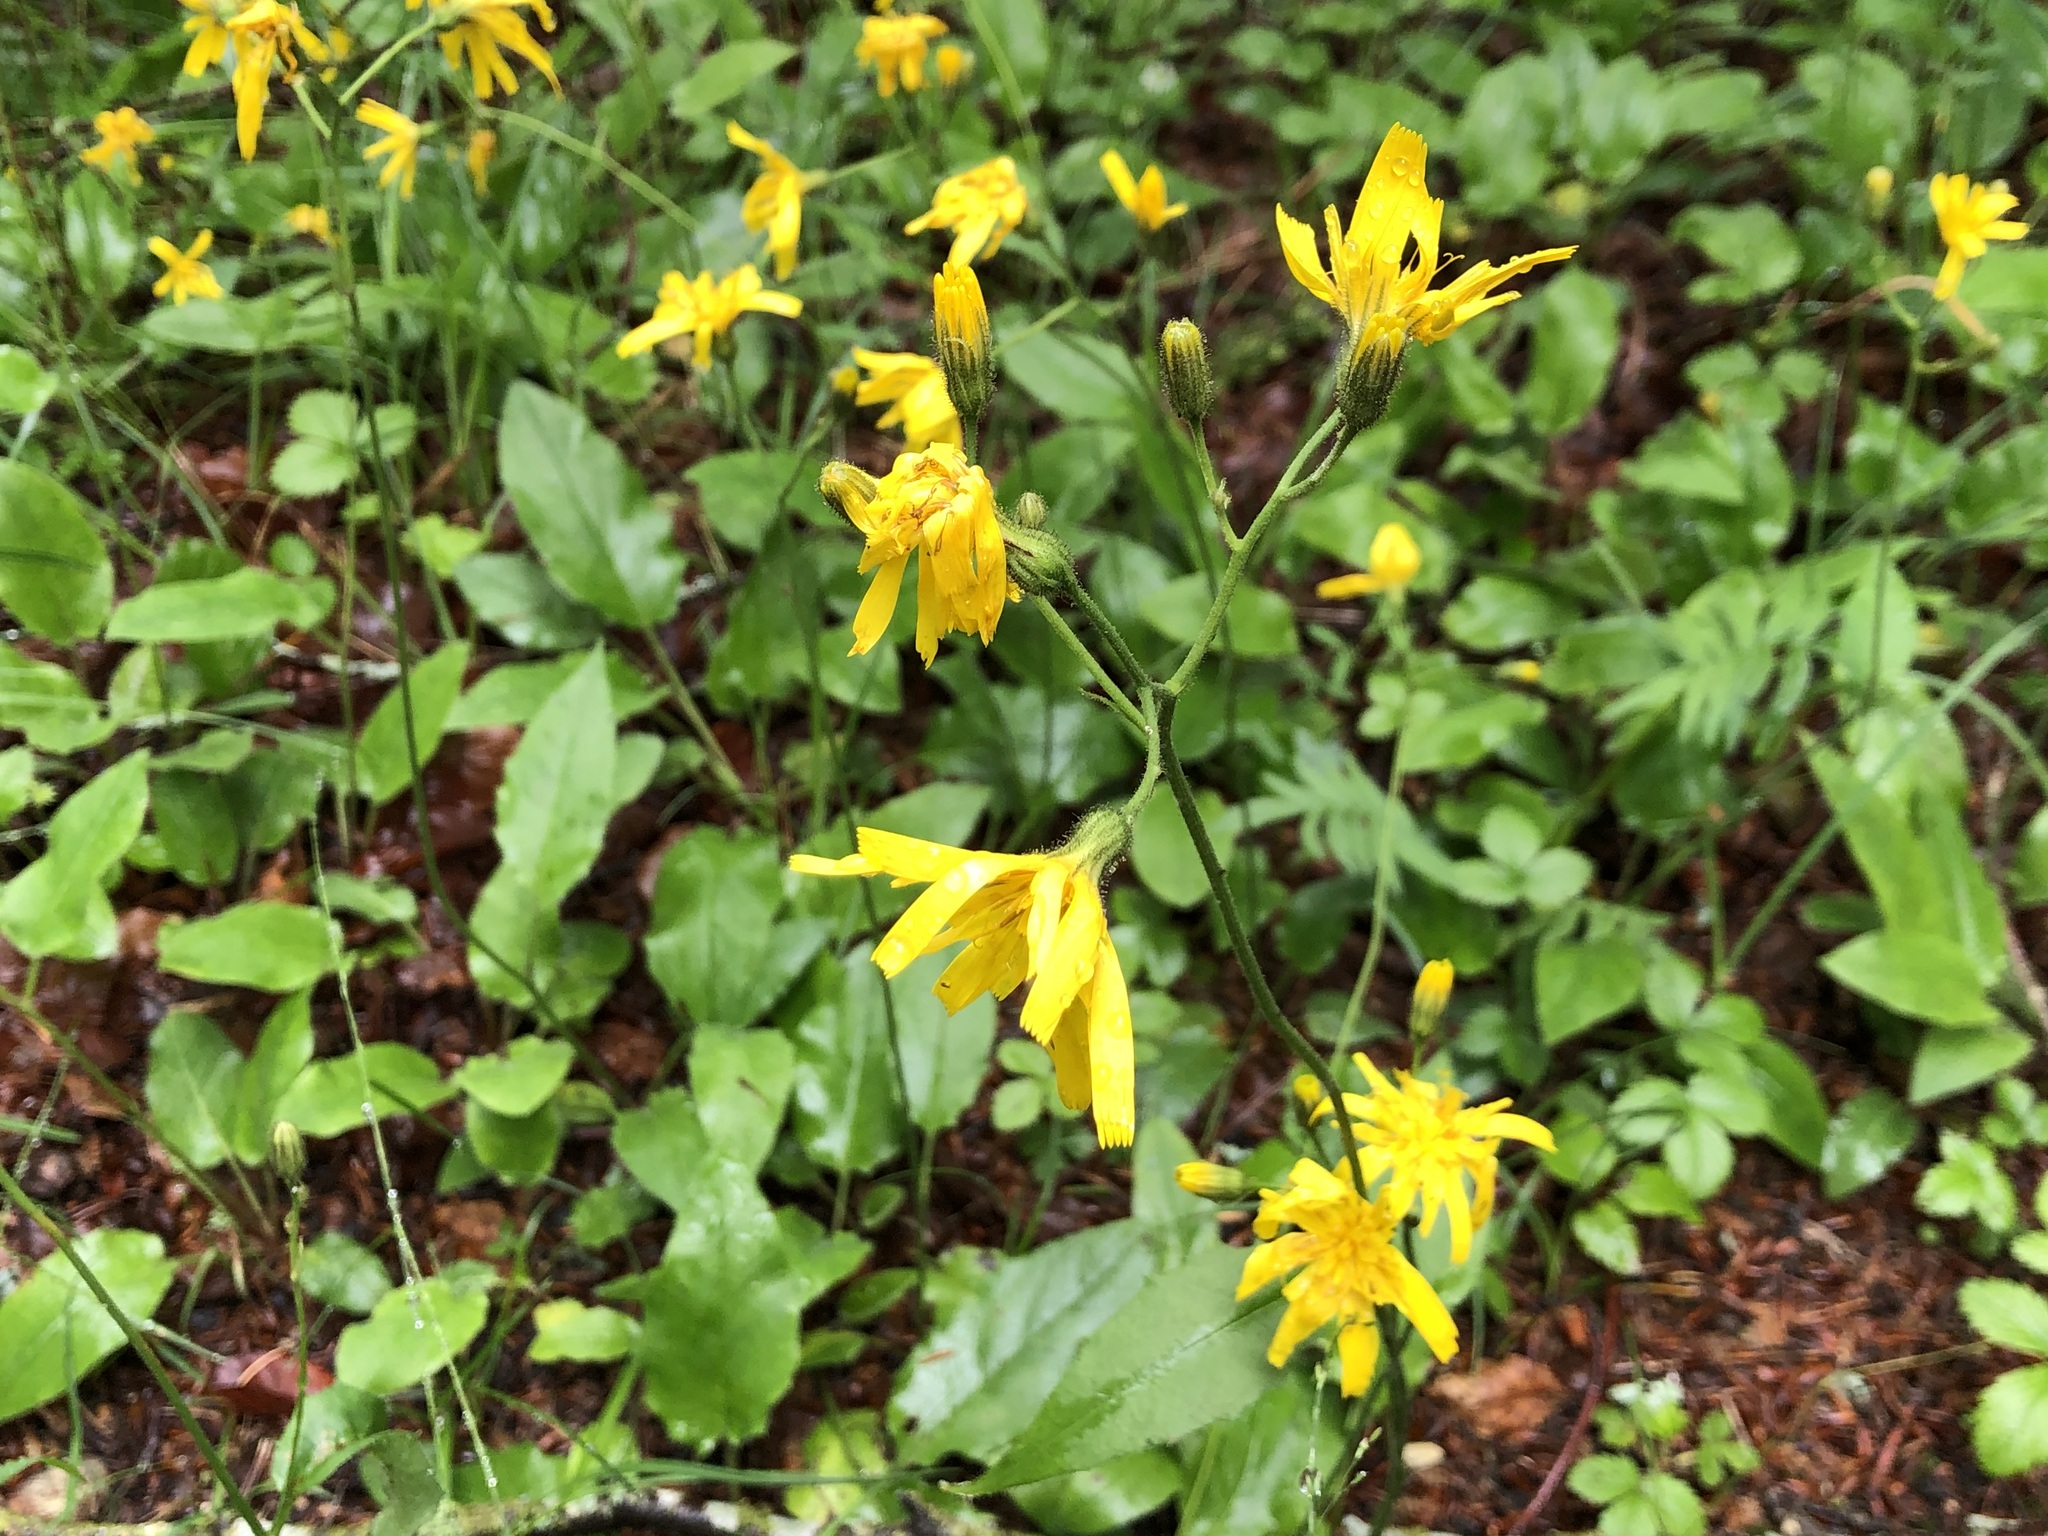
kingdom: Plantae
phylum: Tracheophyta
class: Magnoliopsida
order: Asterales
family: Asteraceae
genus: Hieracium
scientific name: Hieracium murorum
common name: Wall hawkweed
